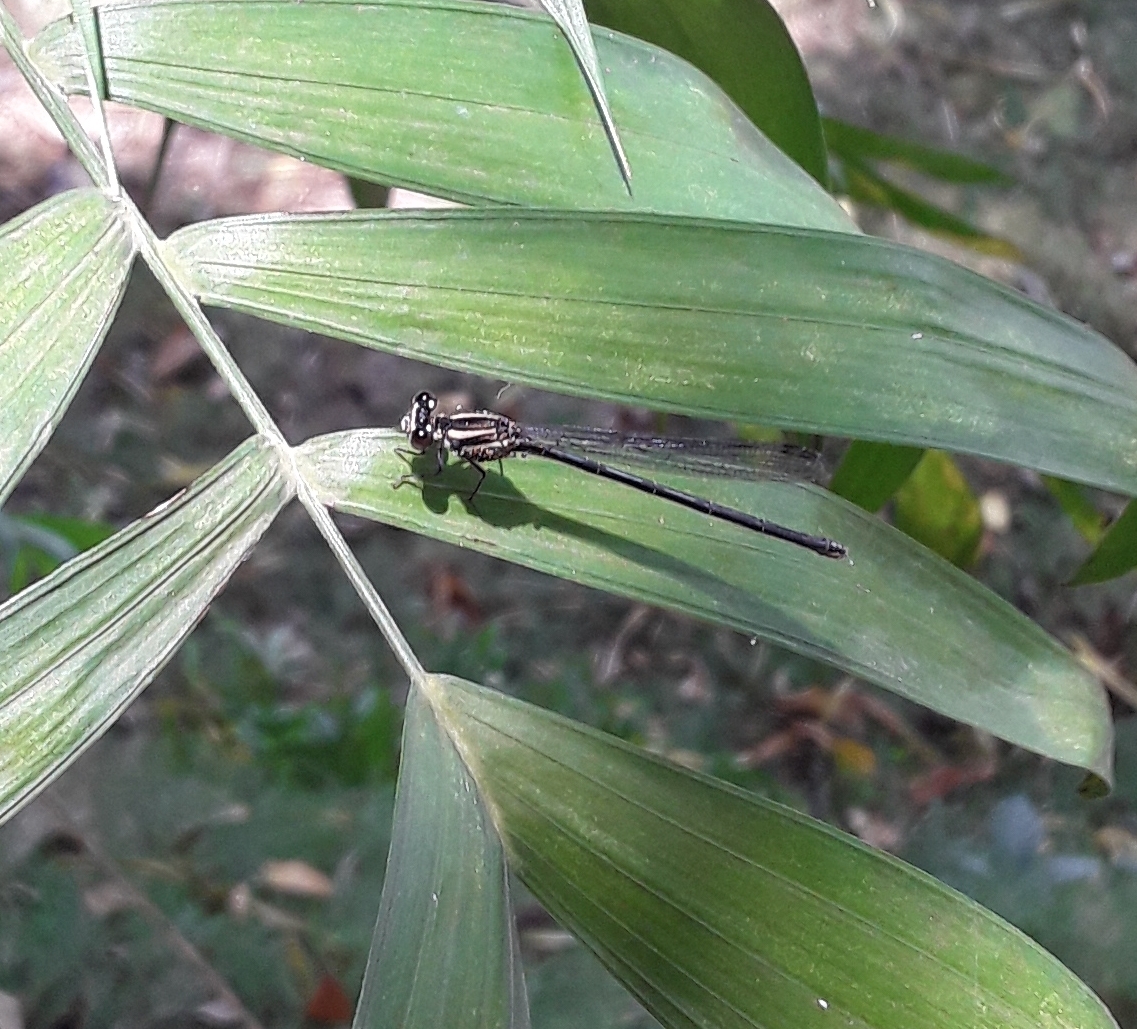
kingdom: Animalia
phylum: Arthropoda
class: Insecta
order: Odonata
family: Coenagrionidae
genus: Argia
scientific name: Argia translata
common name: Dusky dancer
